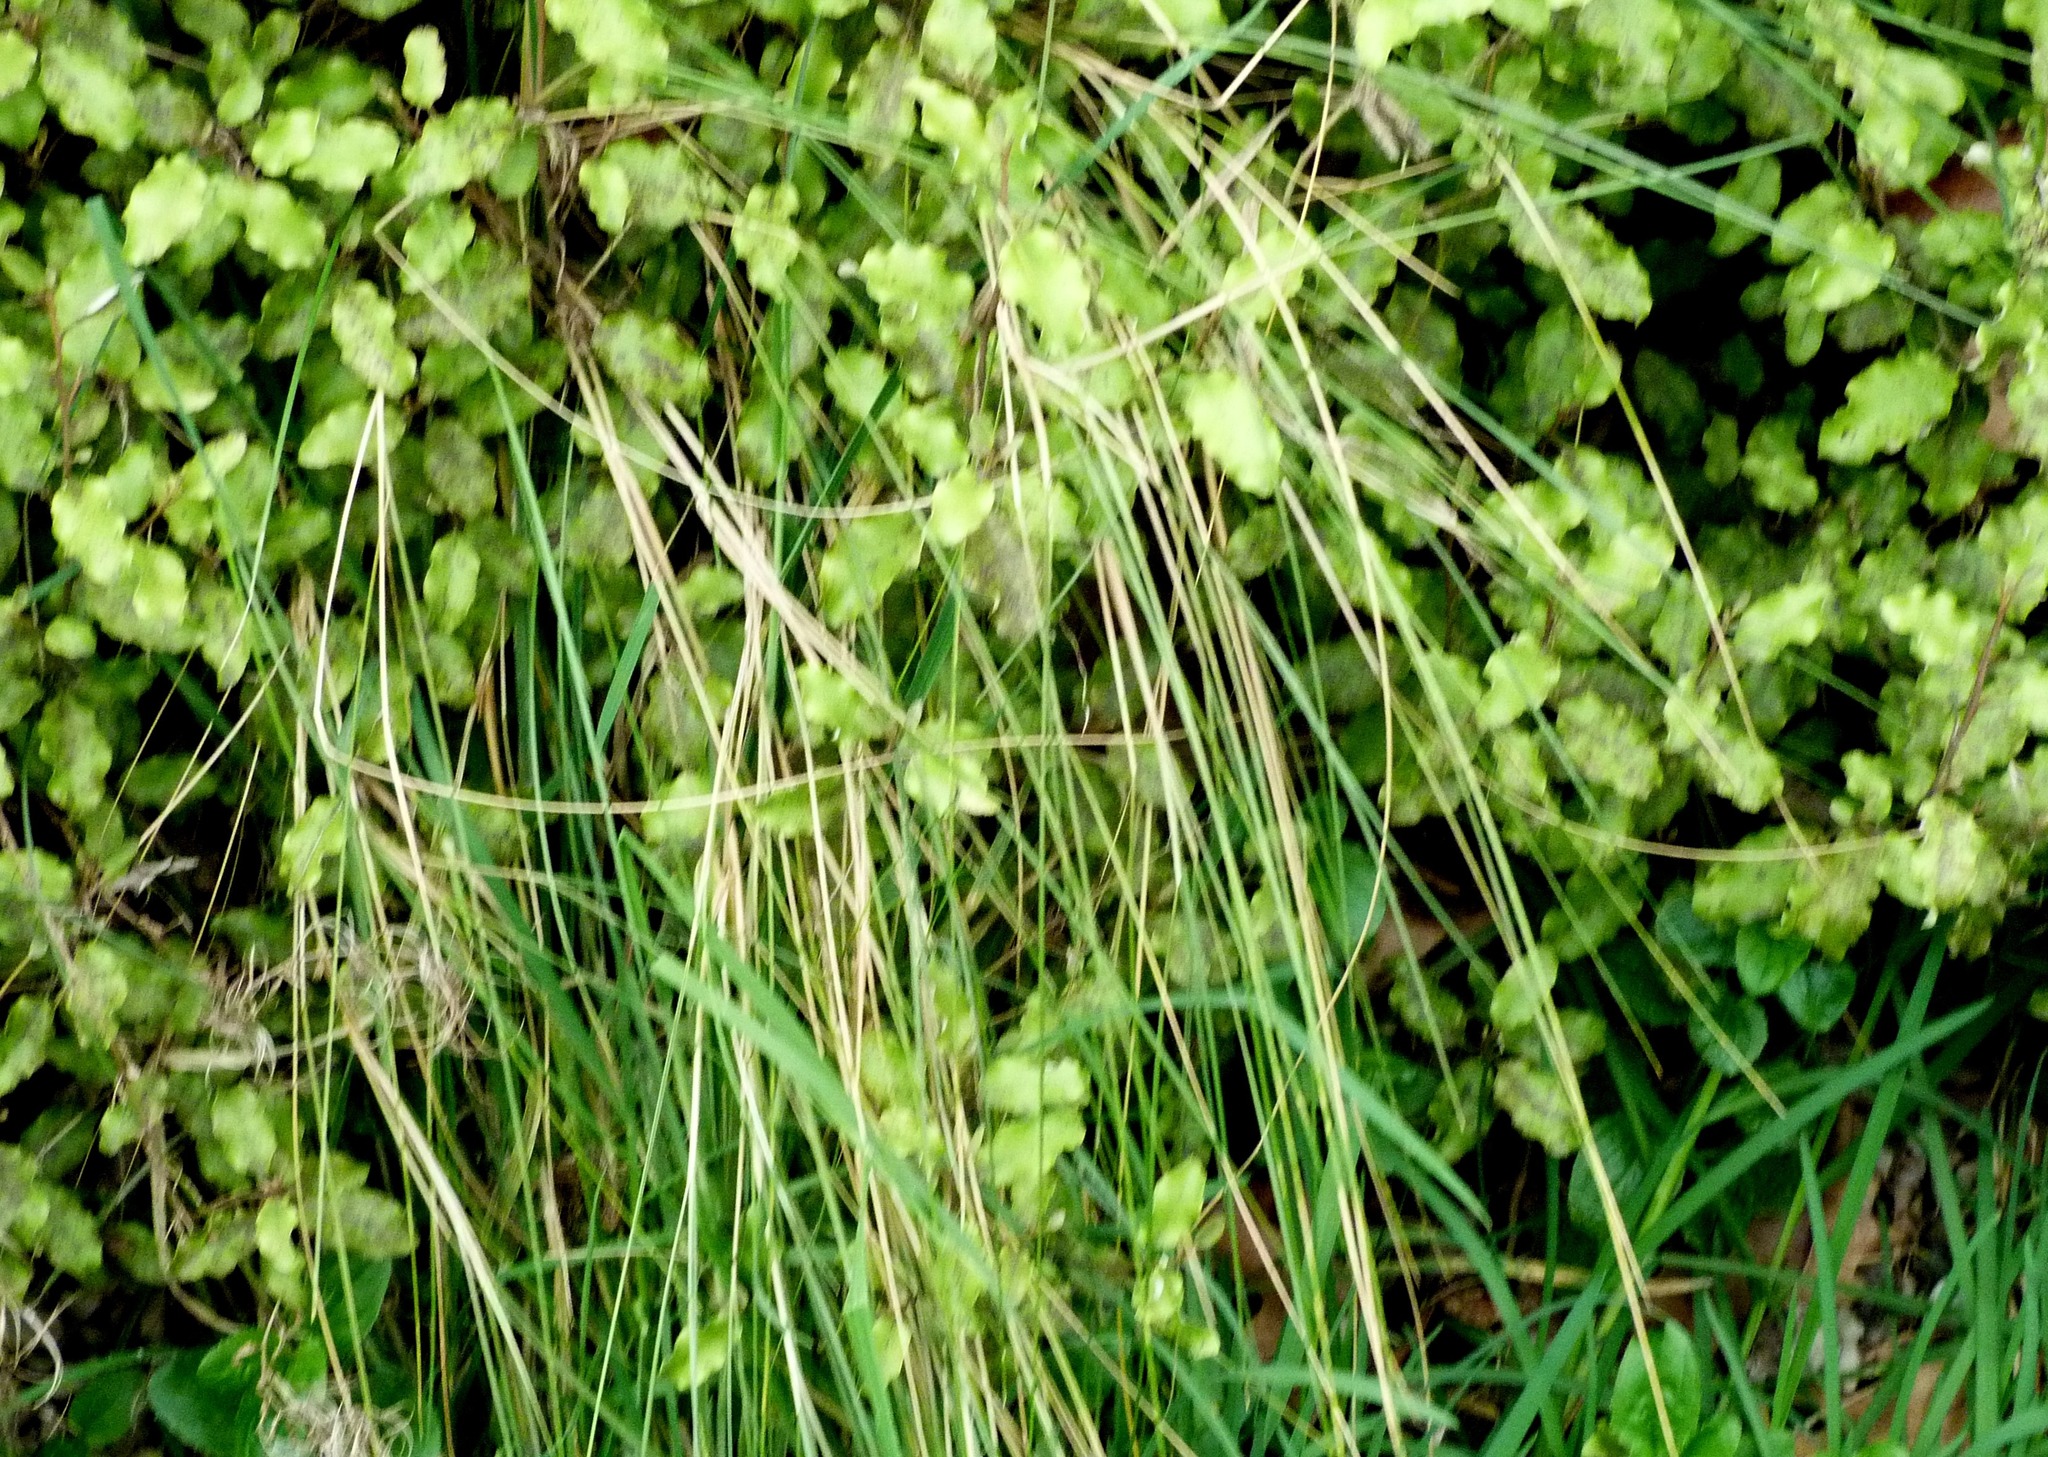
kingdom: Plantae
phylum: Tracheophyta
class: Liliopsida
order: Poales
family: Poaceae
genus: Poa
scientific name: Poa cita
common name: Silver tussock
